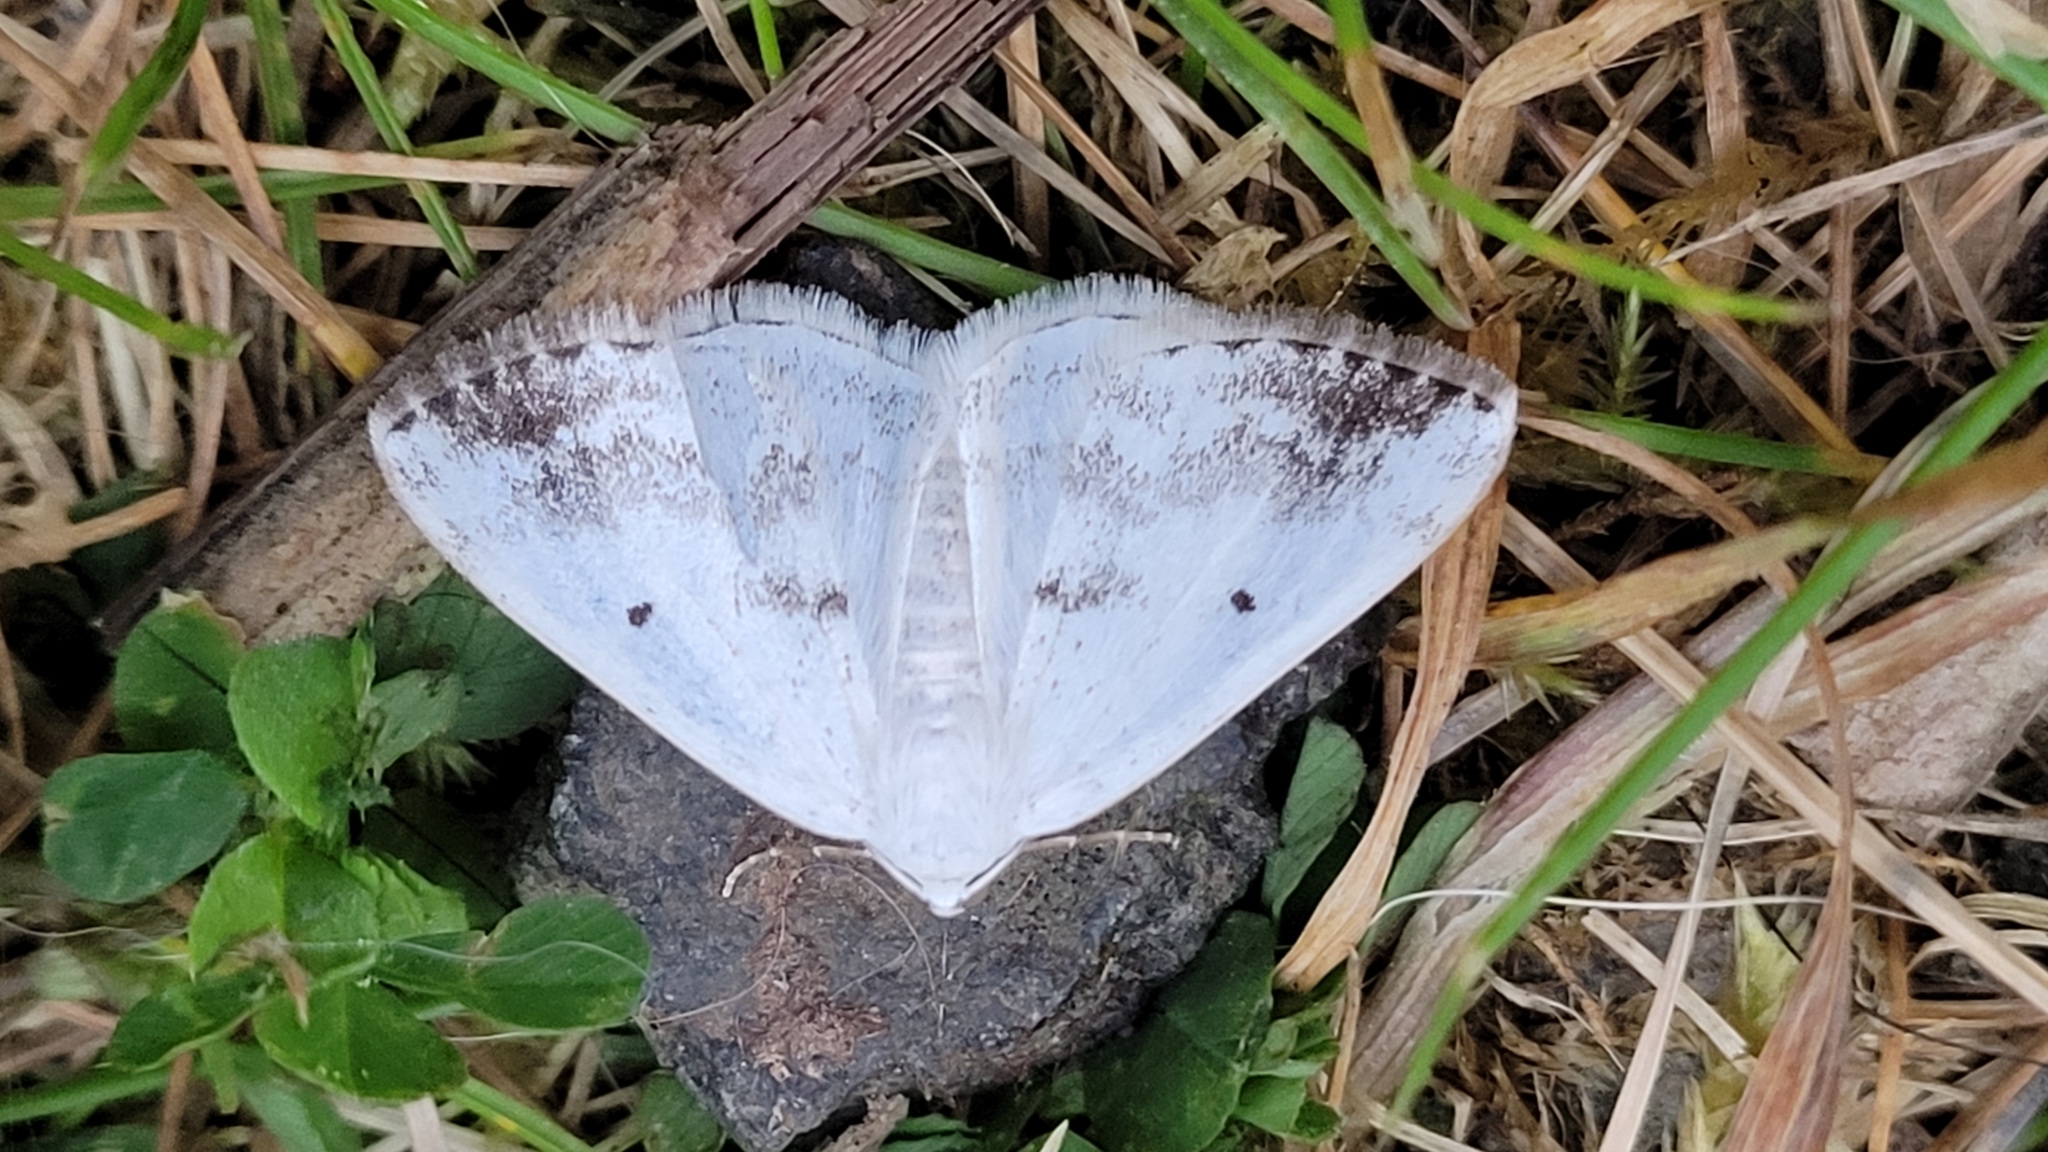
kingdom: Animalia
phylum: Arthropoda
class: Insecta
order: Lepidoptera
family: Geometridae
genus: Lomographa
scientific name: Lomographa temerata
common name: Clouded silver
